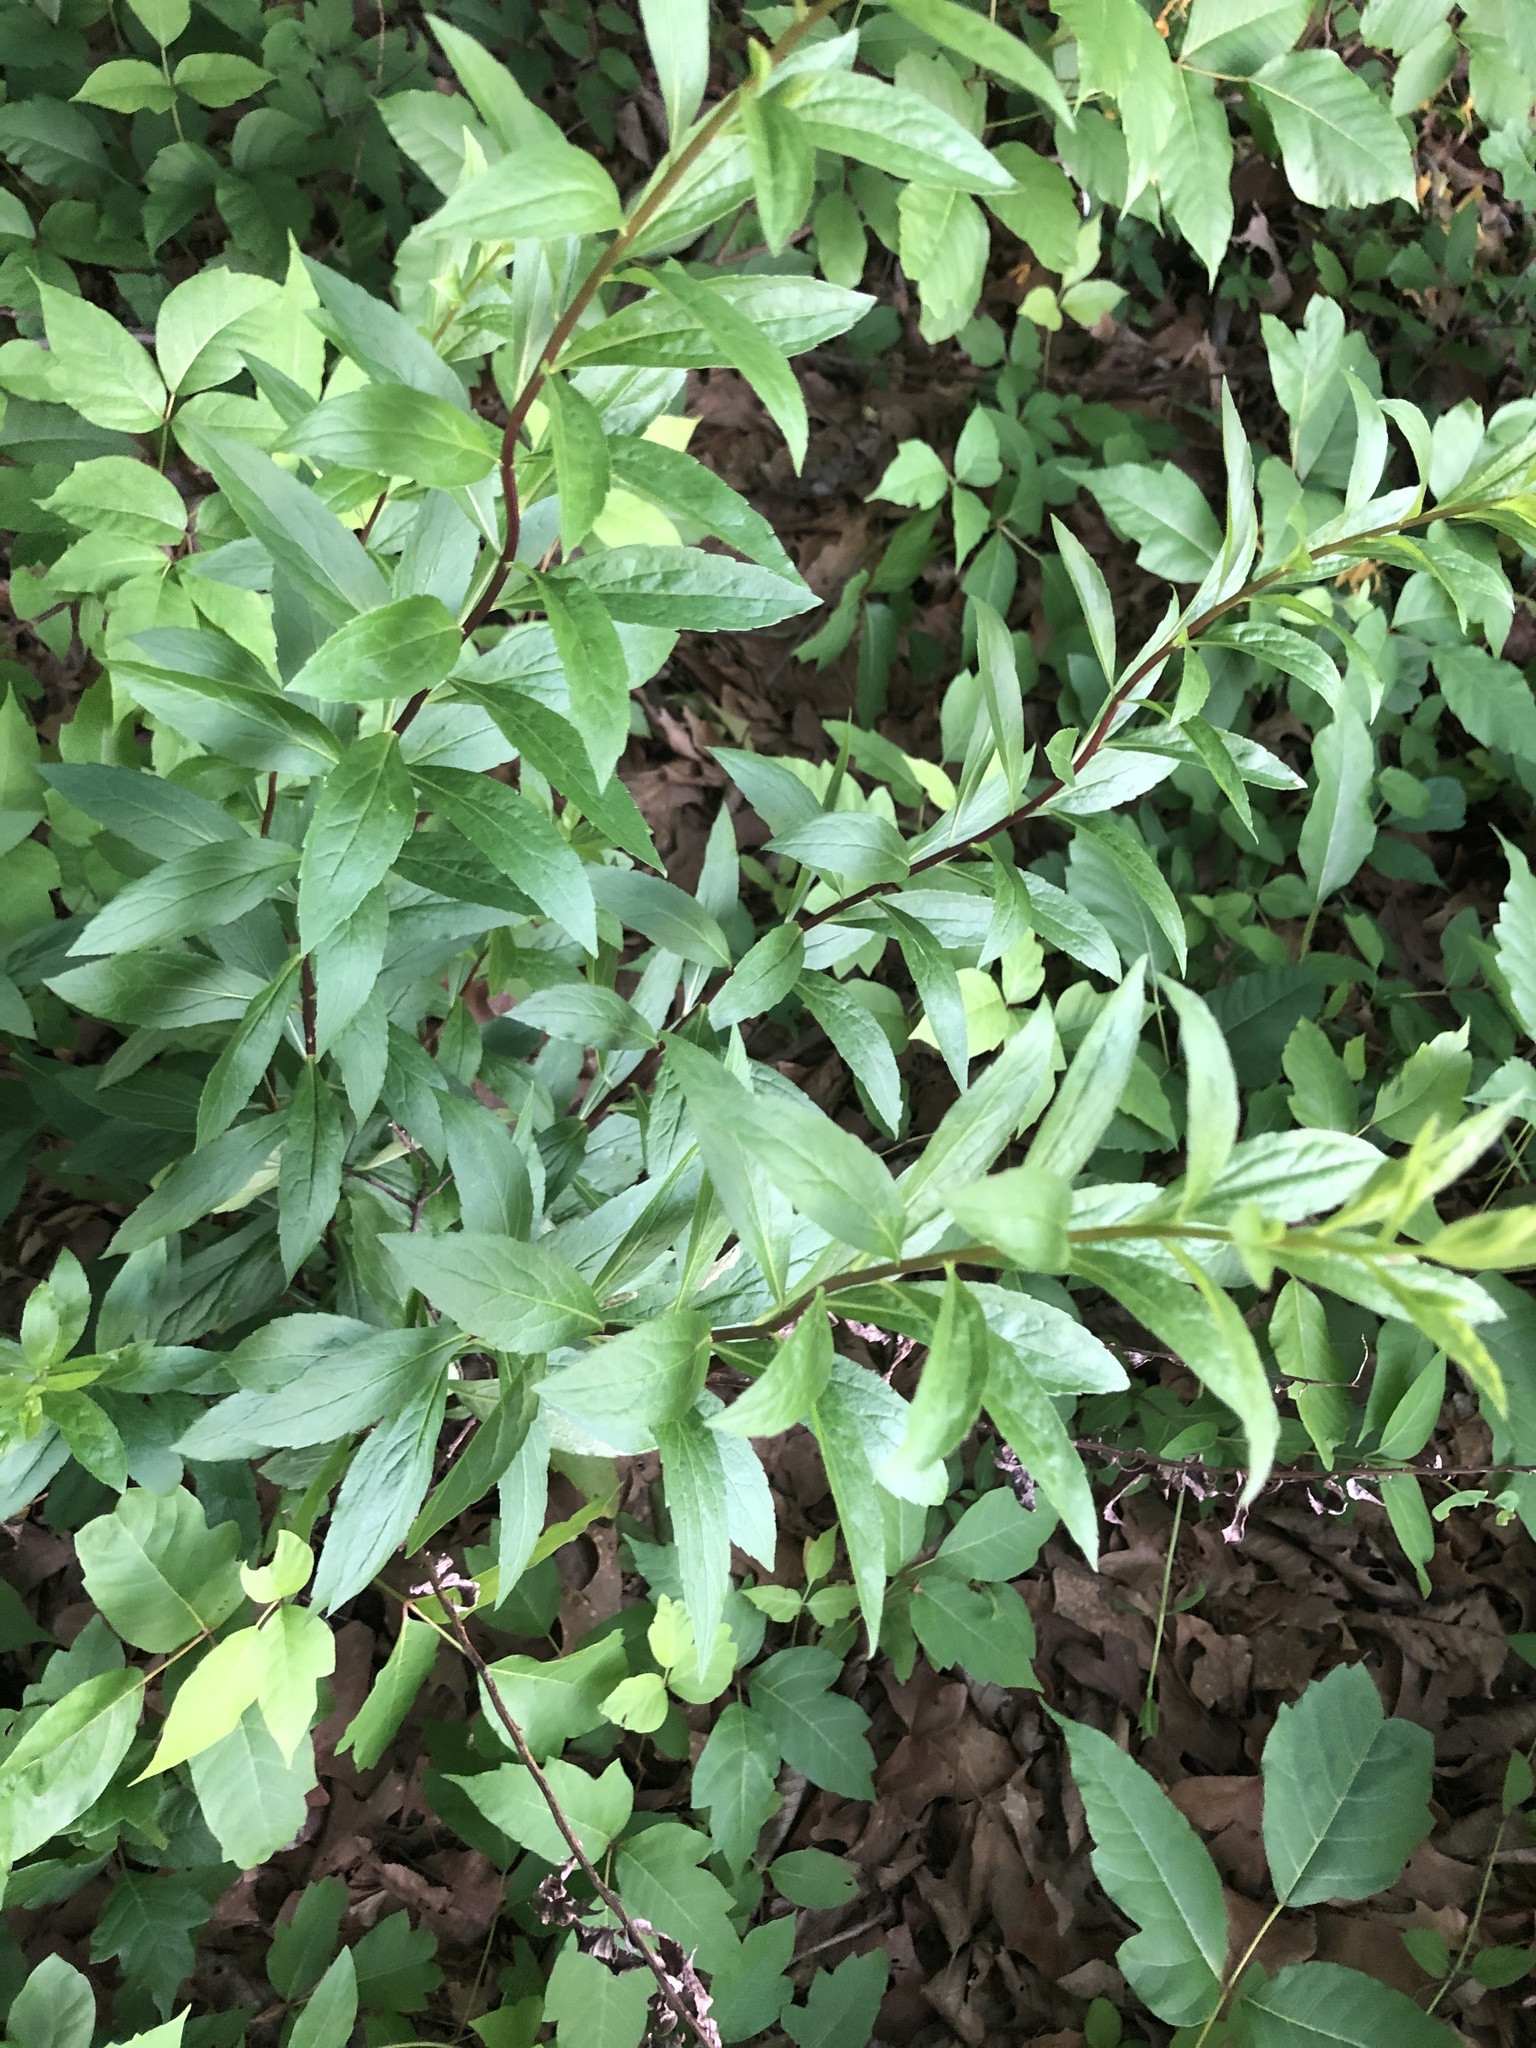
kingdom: Plantae
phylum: Tracheophyta
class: Magnoliopsida
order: Asterales
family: Asteraceae
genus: Solidago
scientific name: Solidago ulmifolia
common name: Elm-leaf goldenrod
